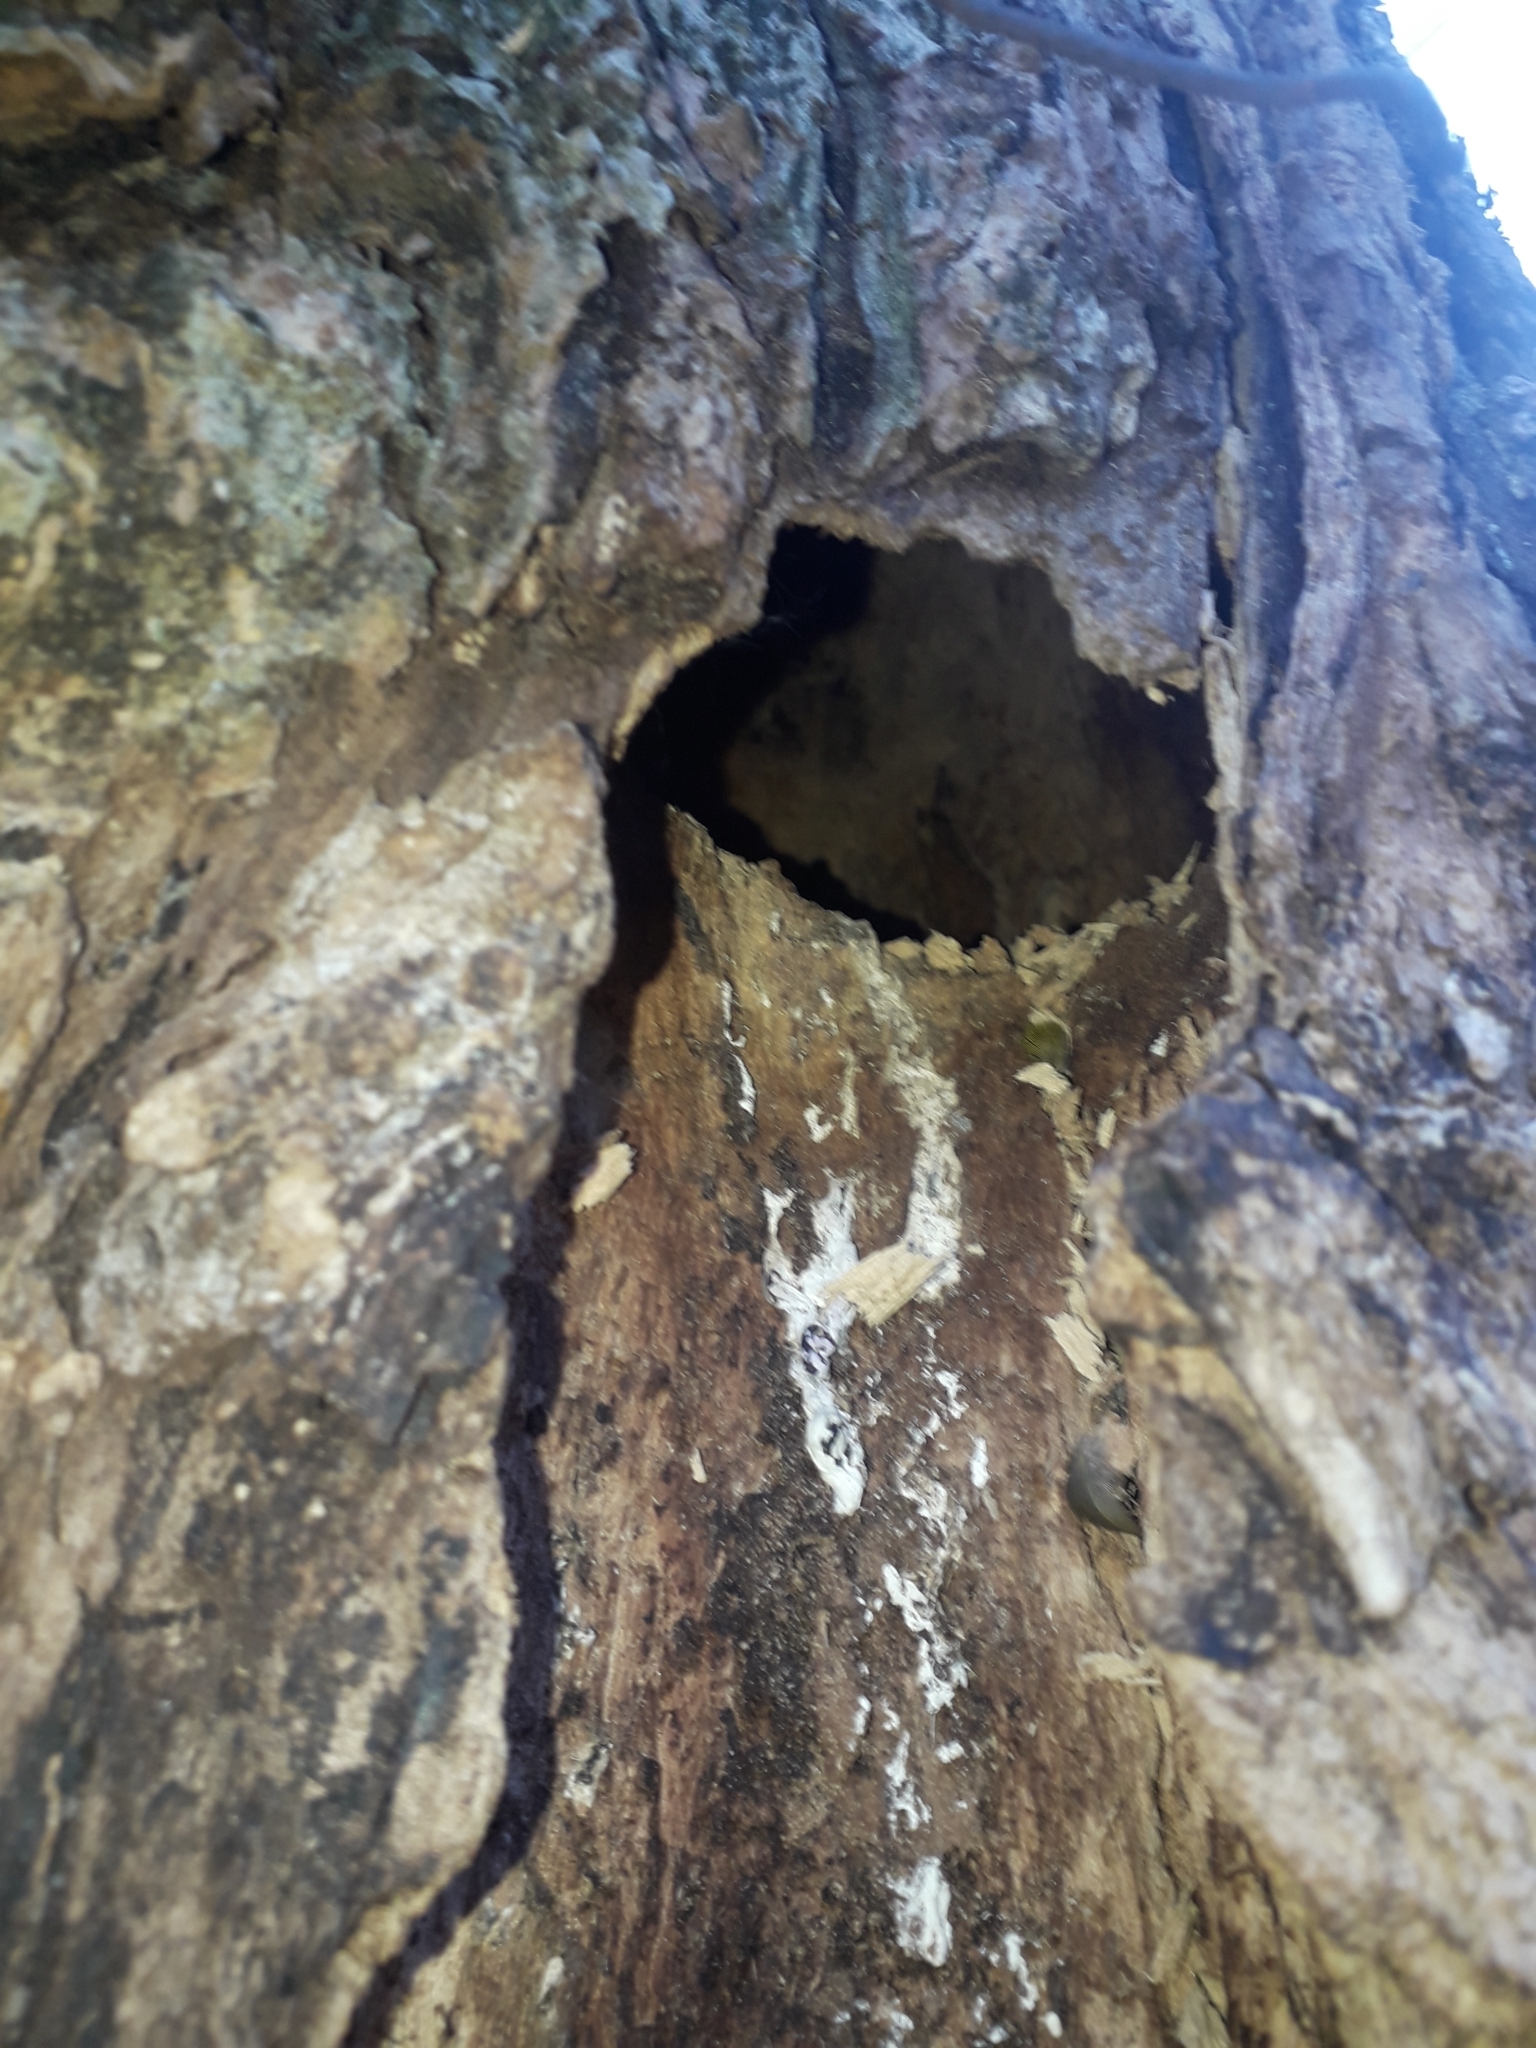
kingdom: Animalia
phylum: Chordata
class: Aves
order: Psittaciformes
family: Psittacidae
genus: Brotogeris
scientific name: Brotogeris jugularis
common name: Orange-chinned parakeet
